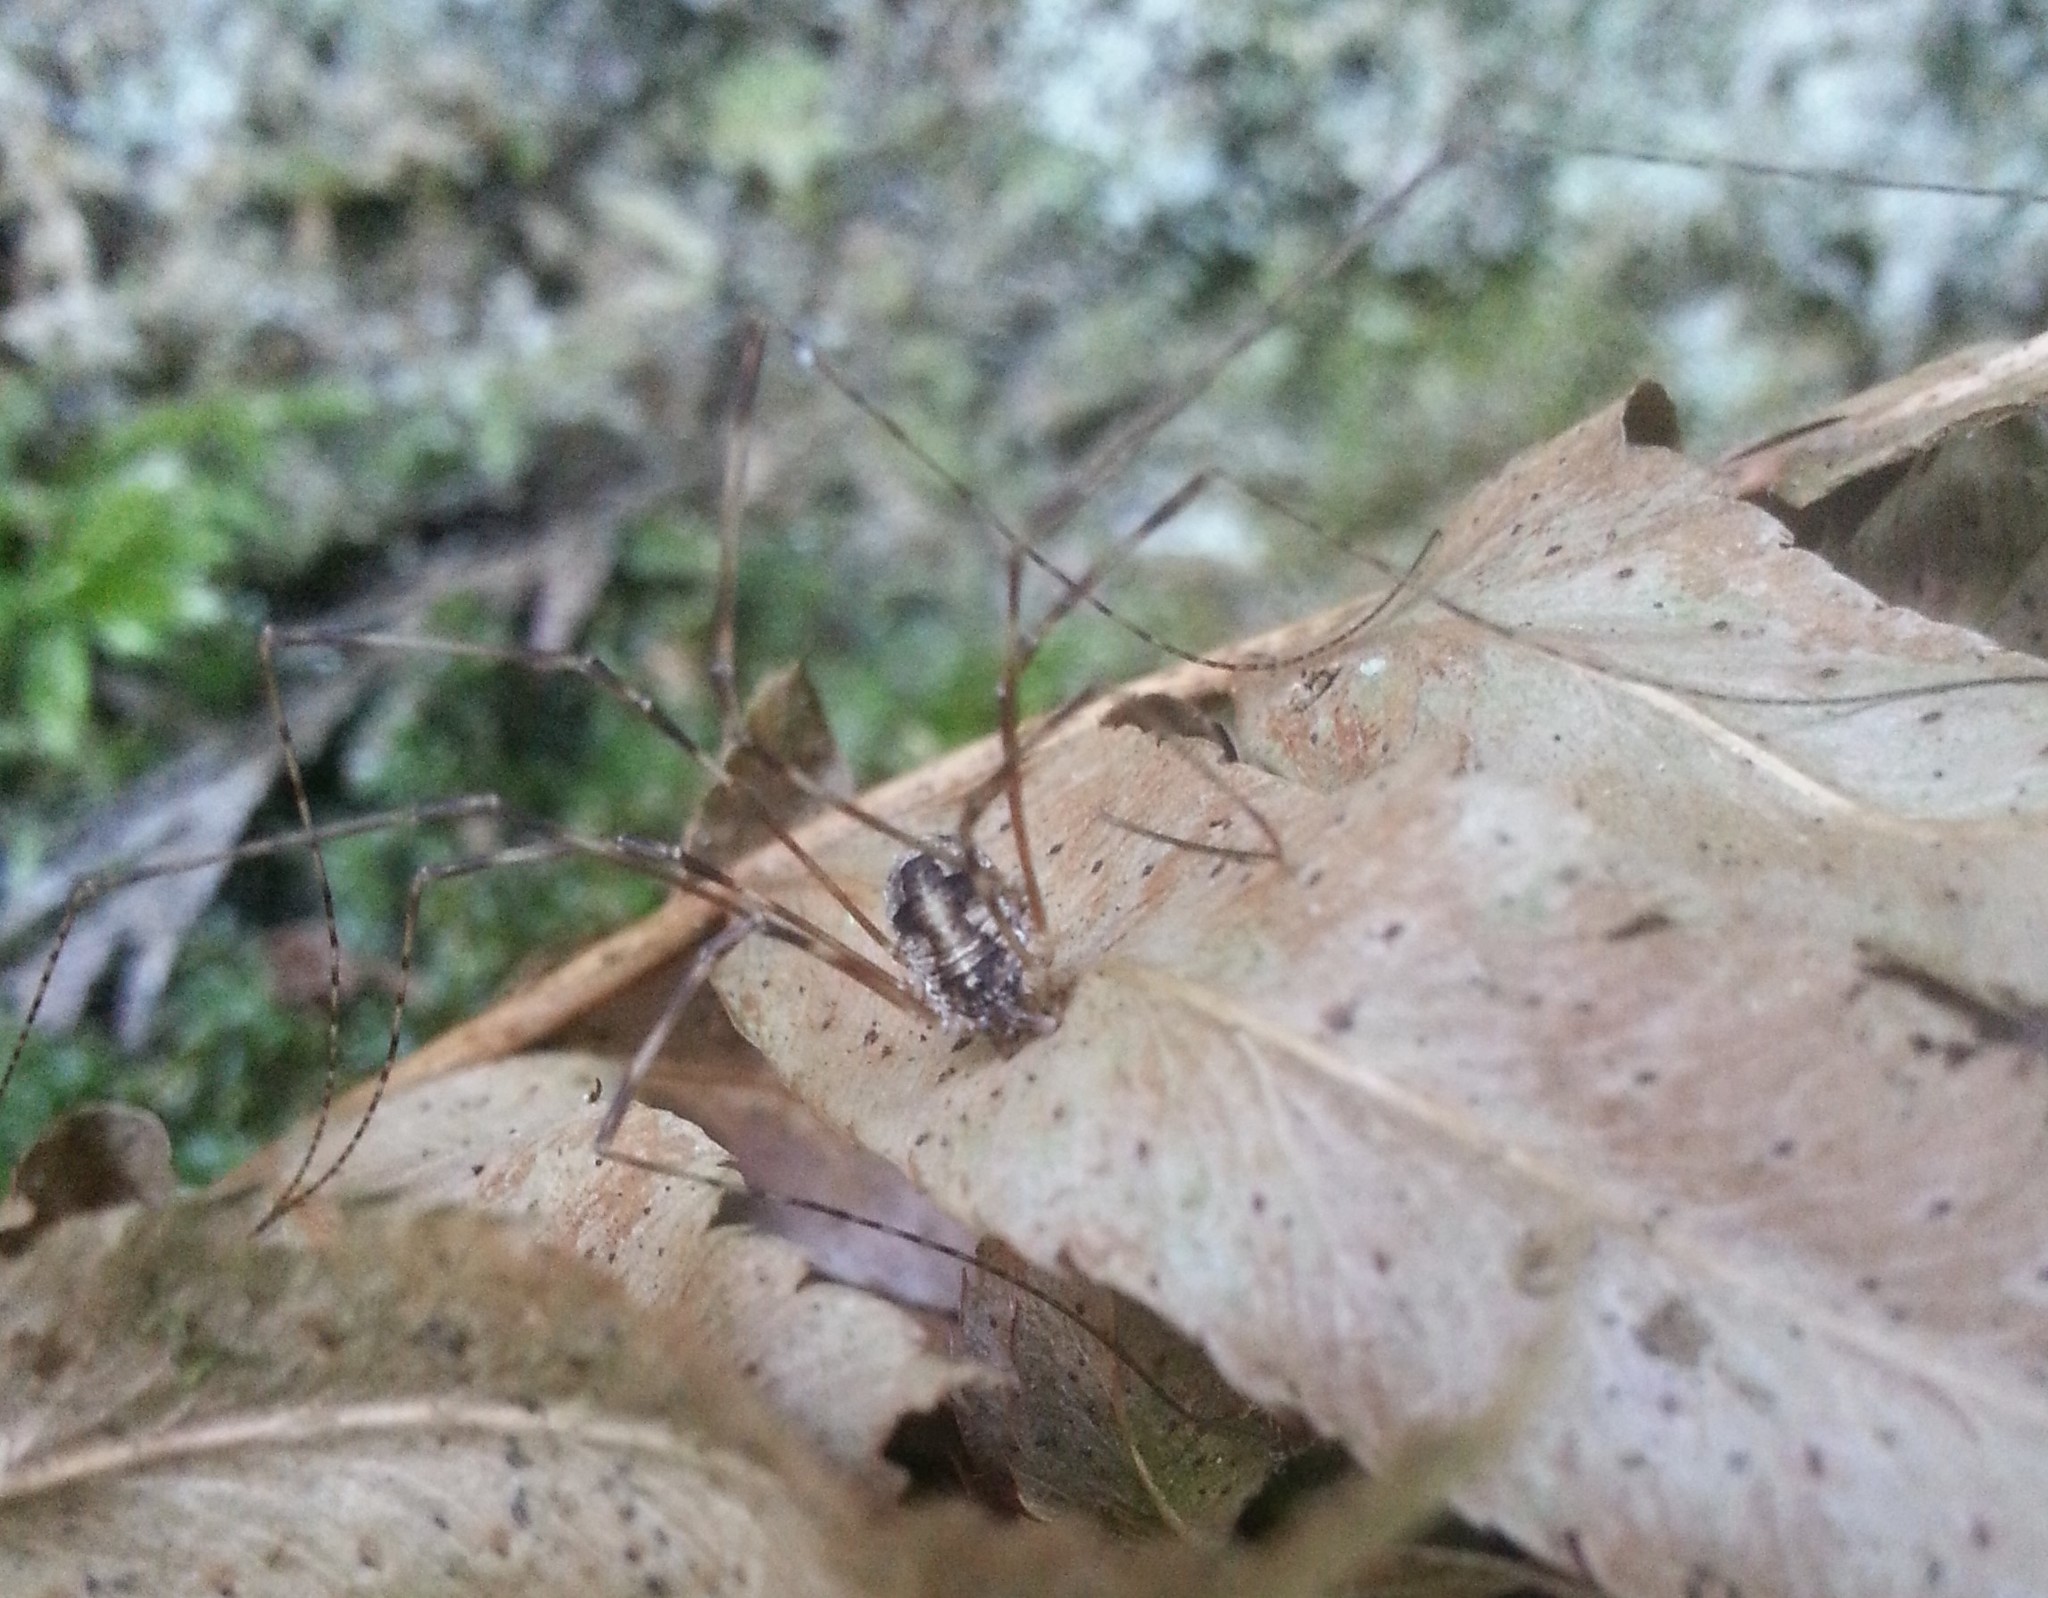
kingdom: Animalia
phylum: Arthropoda
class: Arachnida
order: Opiliones
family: Phalangiidae
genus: Leptobunus
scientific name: Leptobunus parvulus
